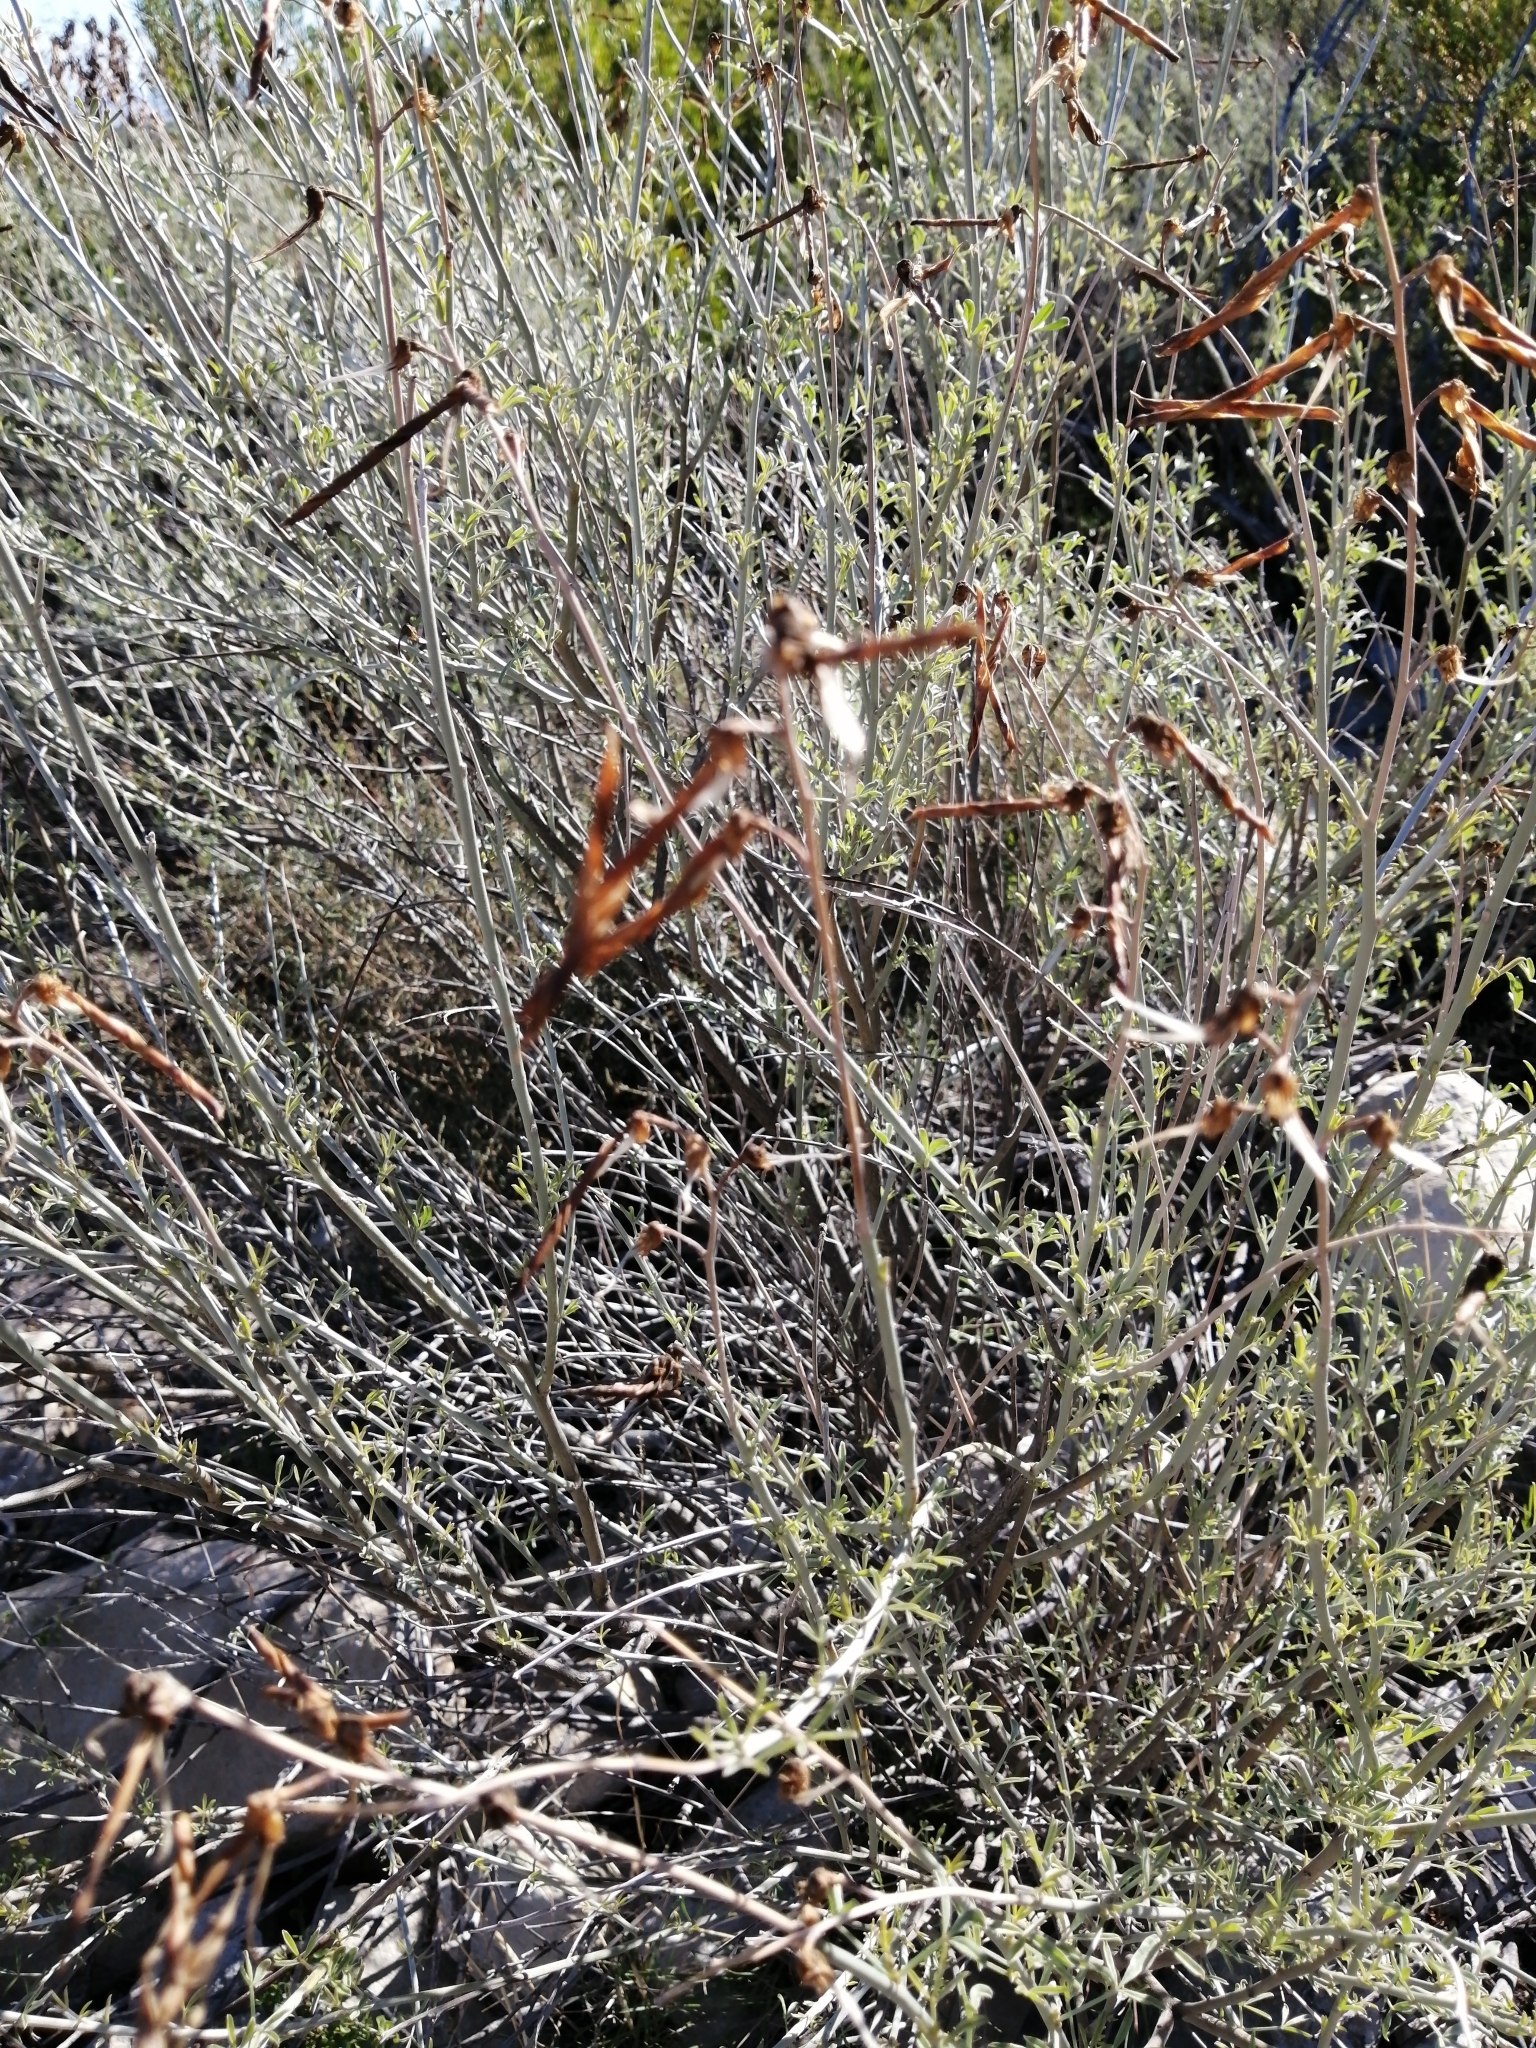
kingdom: Plantae
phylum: Tracheophyta
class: Magnoliopsida
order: Fabales
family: Fabaceae
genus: Calobota
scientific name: Calobota cytisoides
